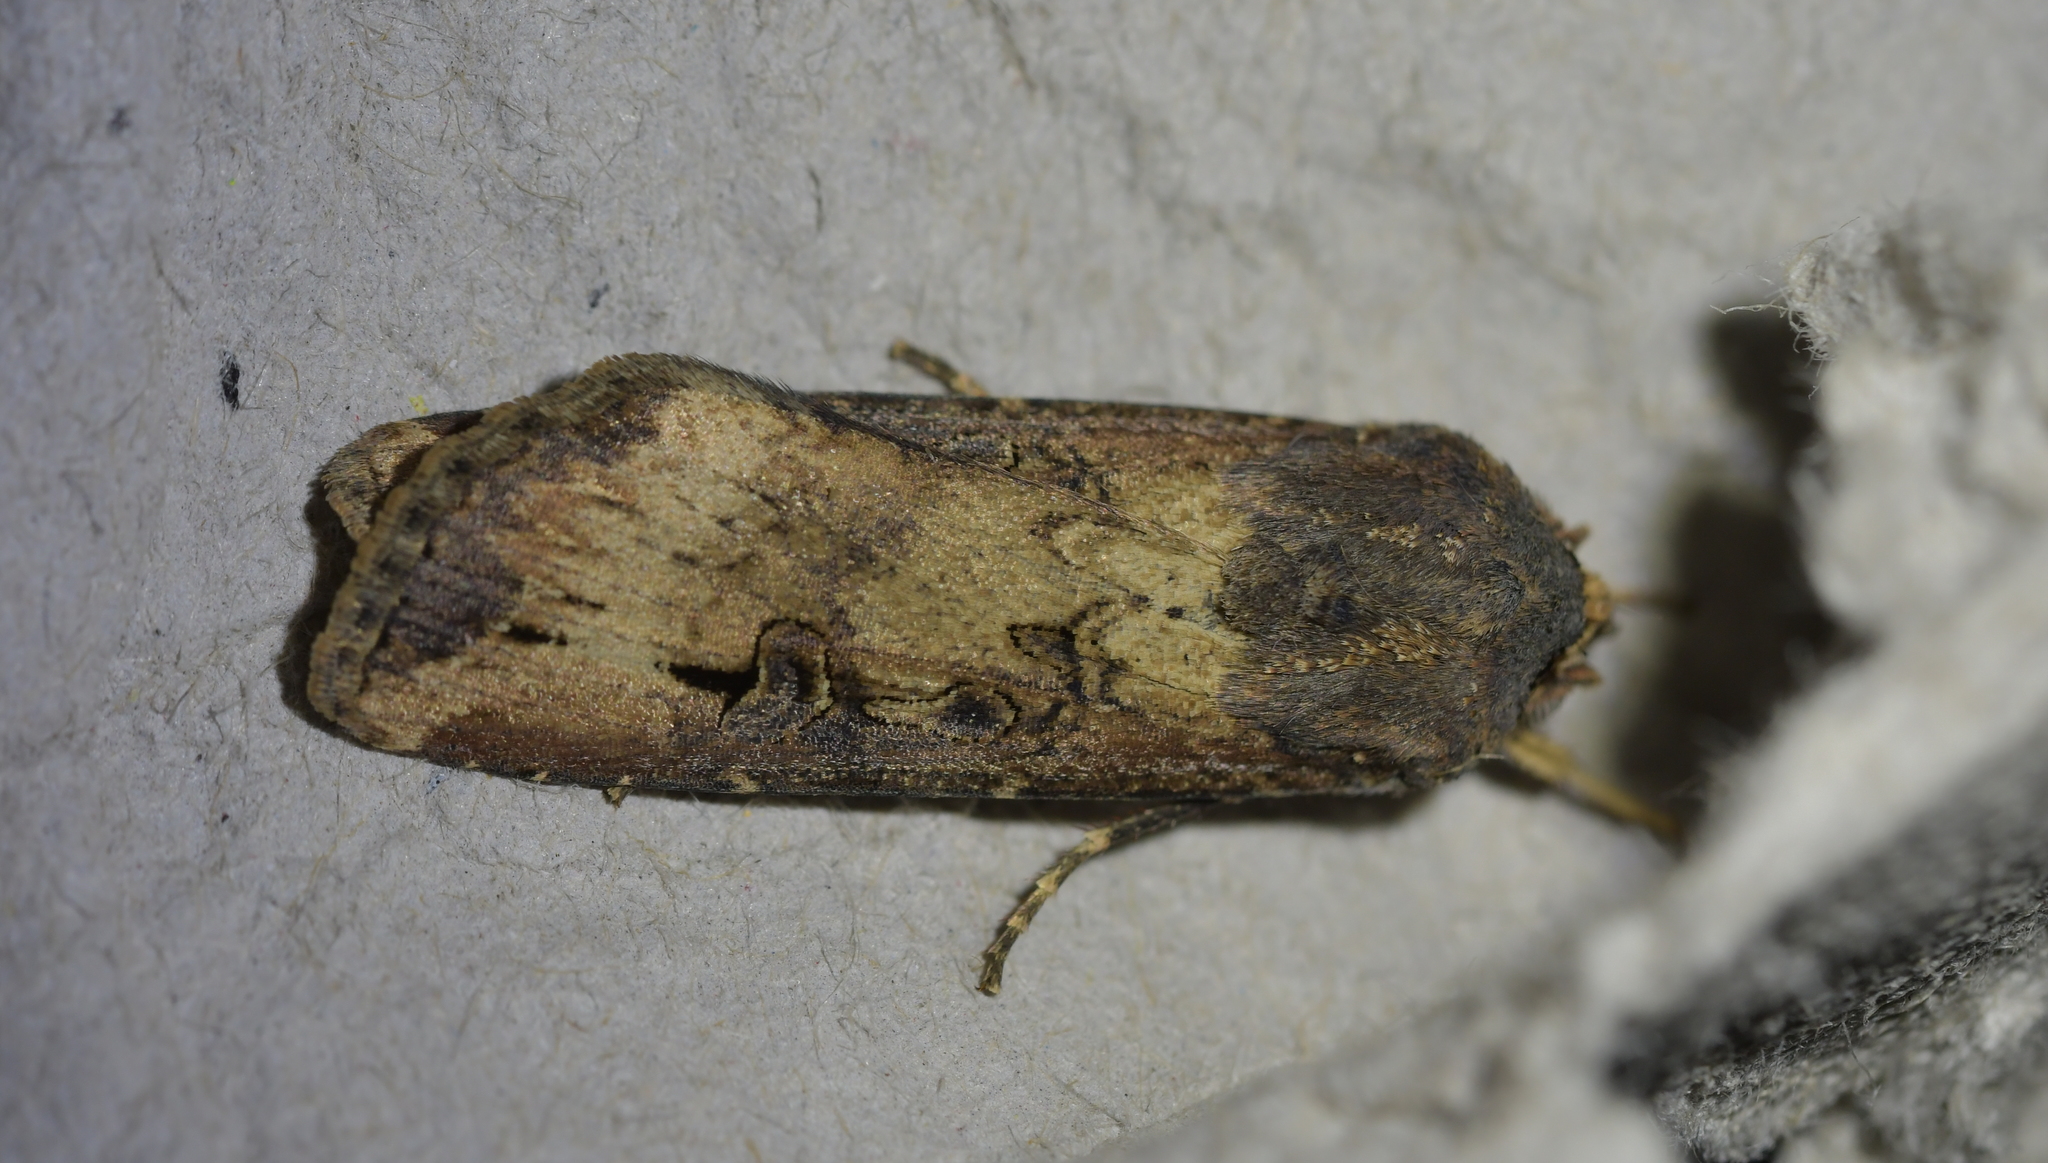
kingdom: Animalia
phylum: Arthropoda
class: Insecta
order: Lepidoptera
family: Noctuidae
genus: Agrotis
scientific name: Agrotis ipsilon
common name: Dark sword-grass
